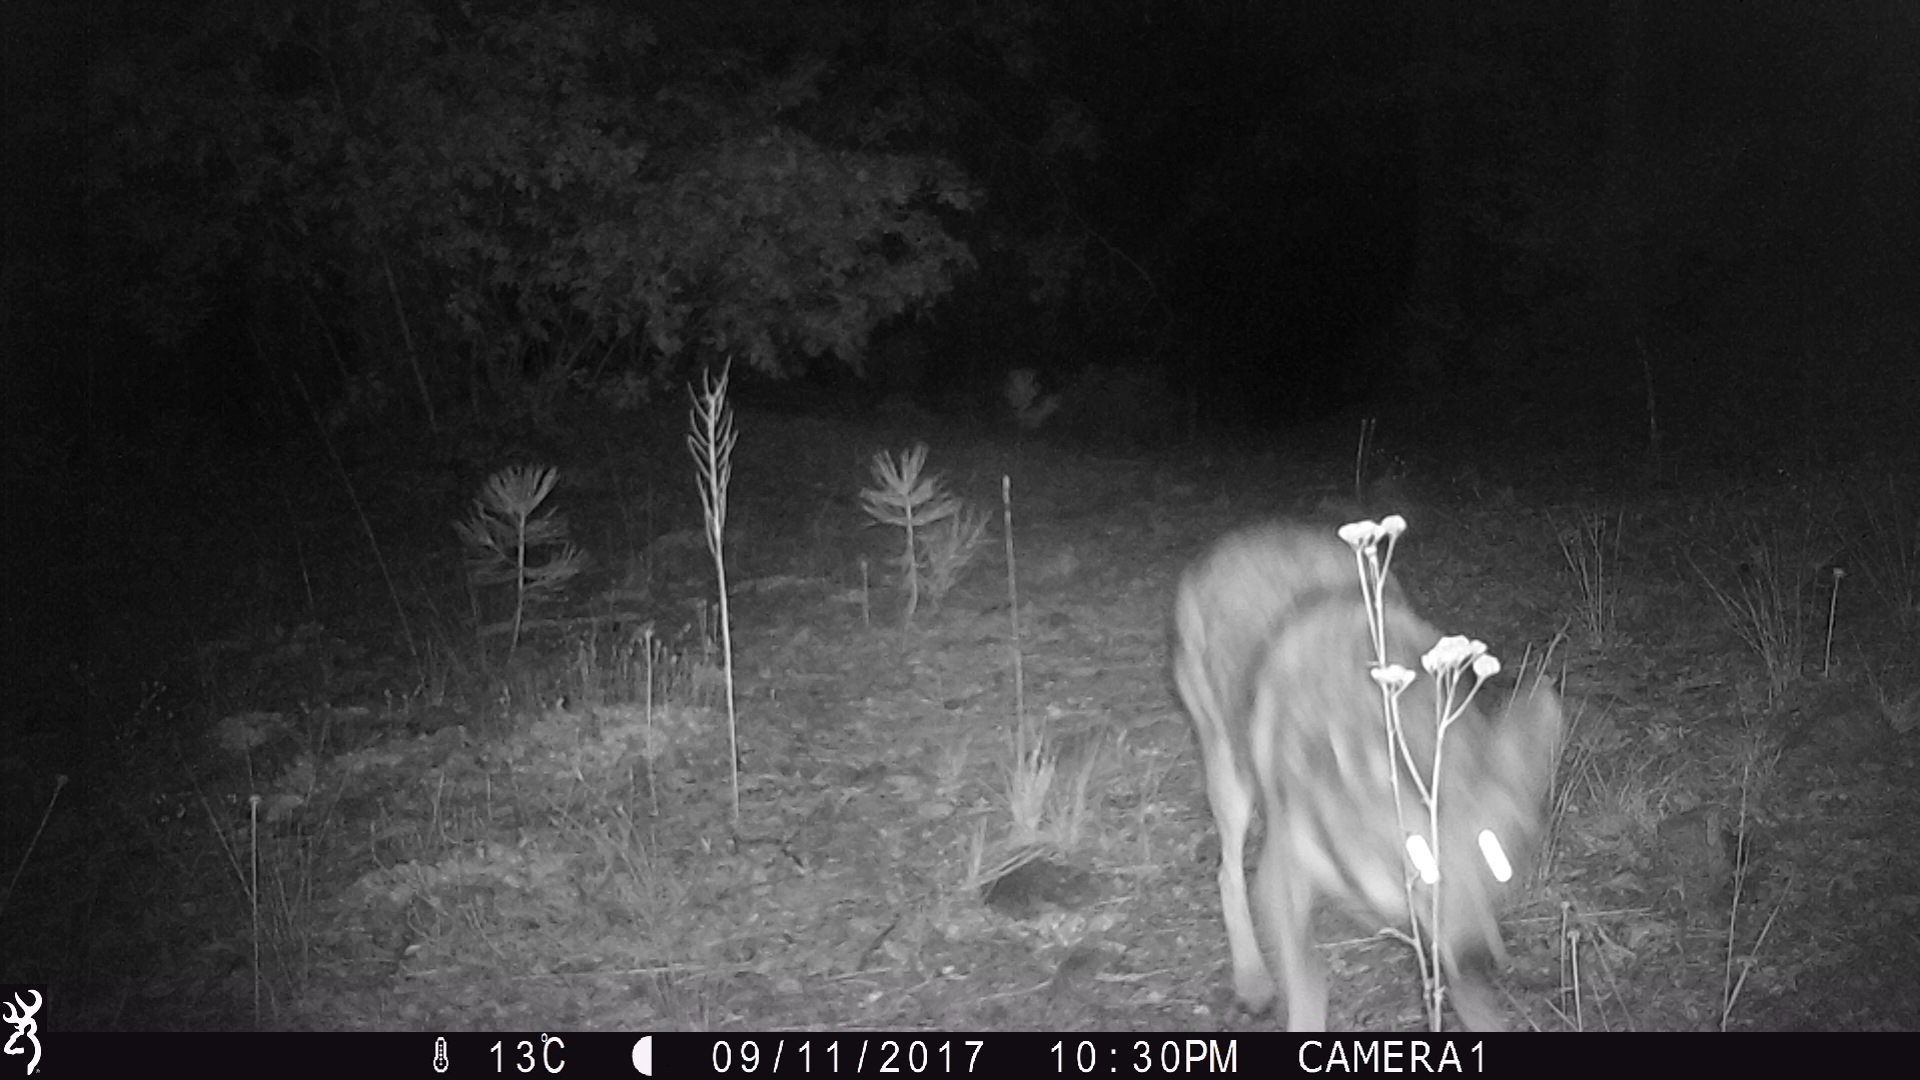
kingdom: Animalia
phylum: Chordata
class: Mammalia
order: Carnivora
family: Canidae
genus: Canis
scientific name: Canis latrans
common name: Coyote
